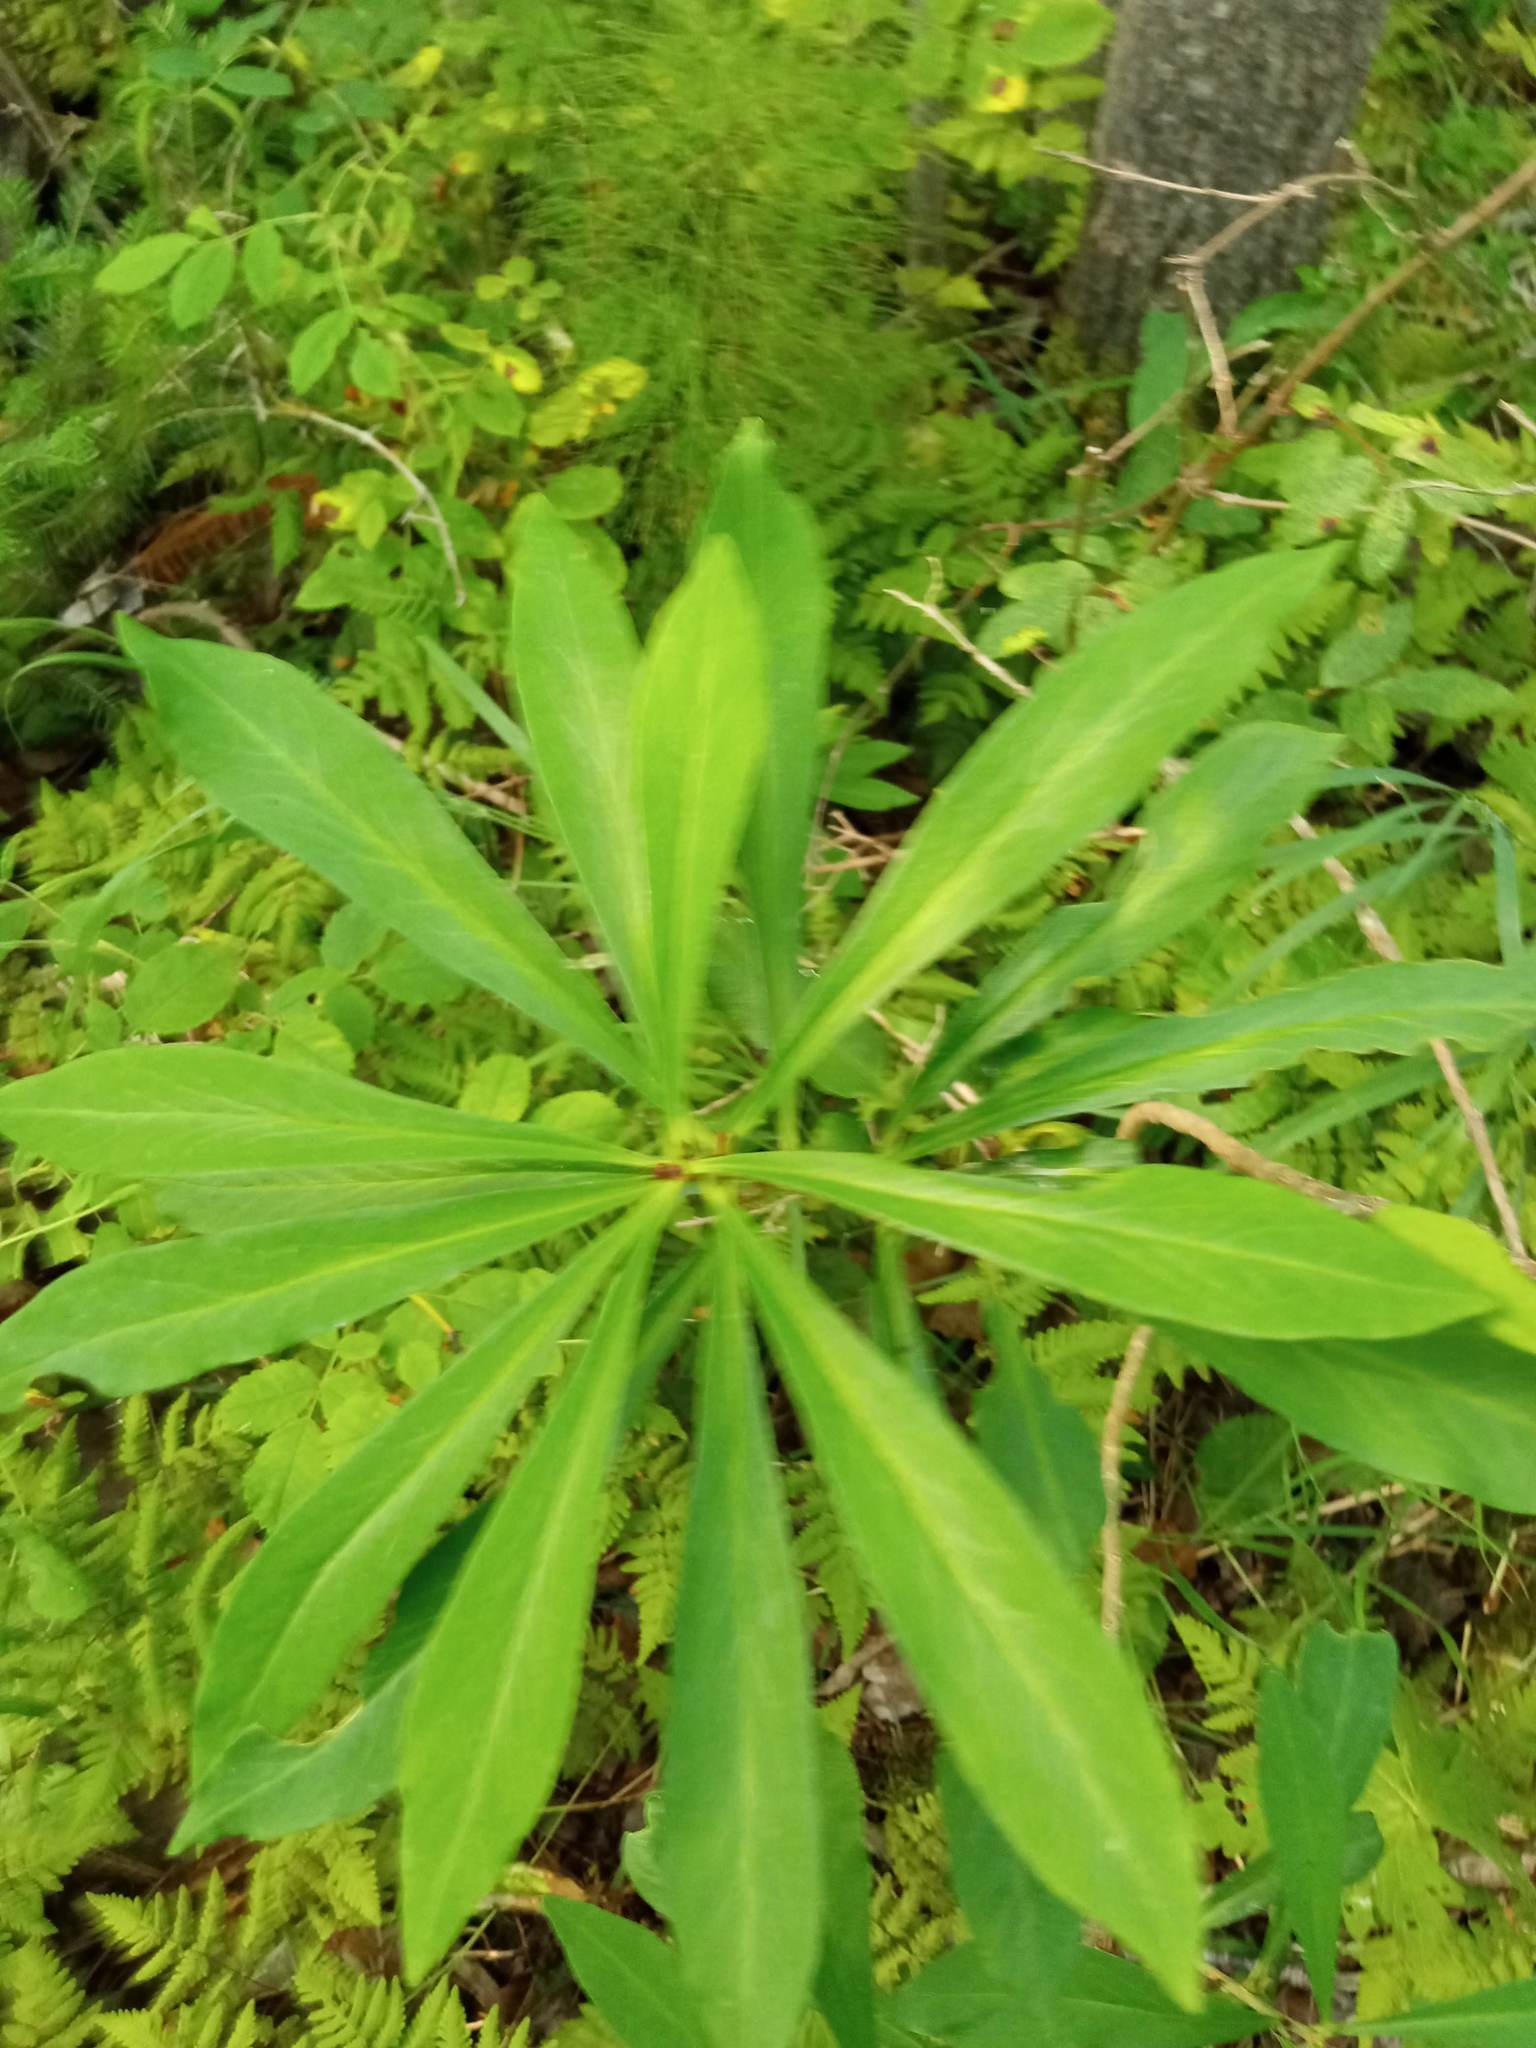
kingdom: Plantae
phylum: Tracheophyta
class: Magnoliopsida
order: Malvales
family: Thymelaeaceae
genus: Daphne
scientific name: Daphne mezereum
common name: Mezereon
